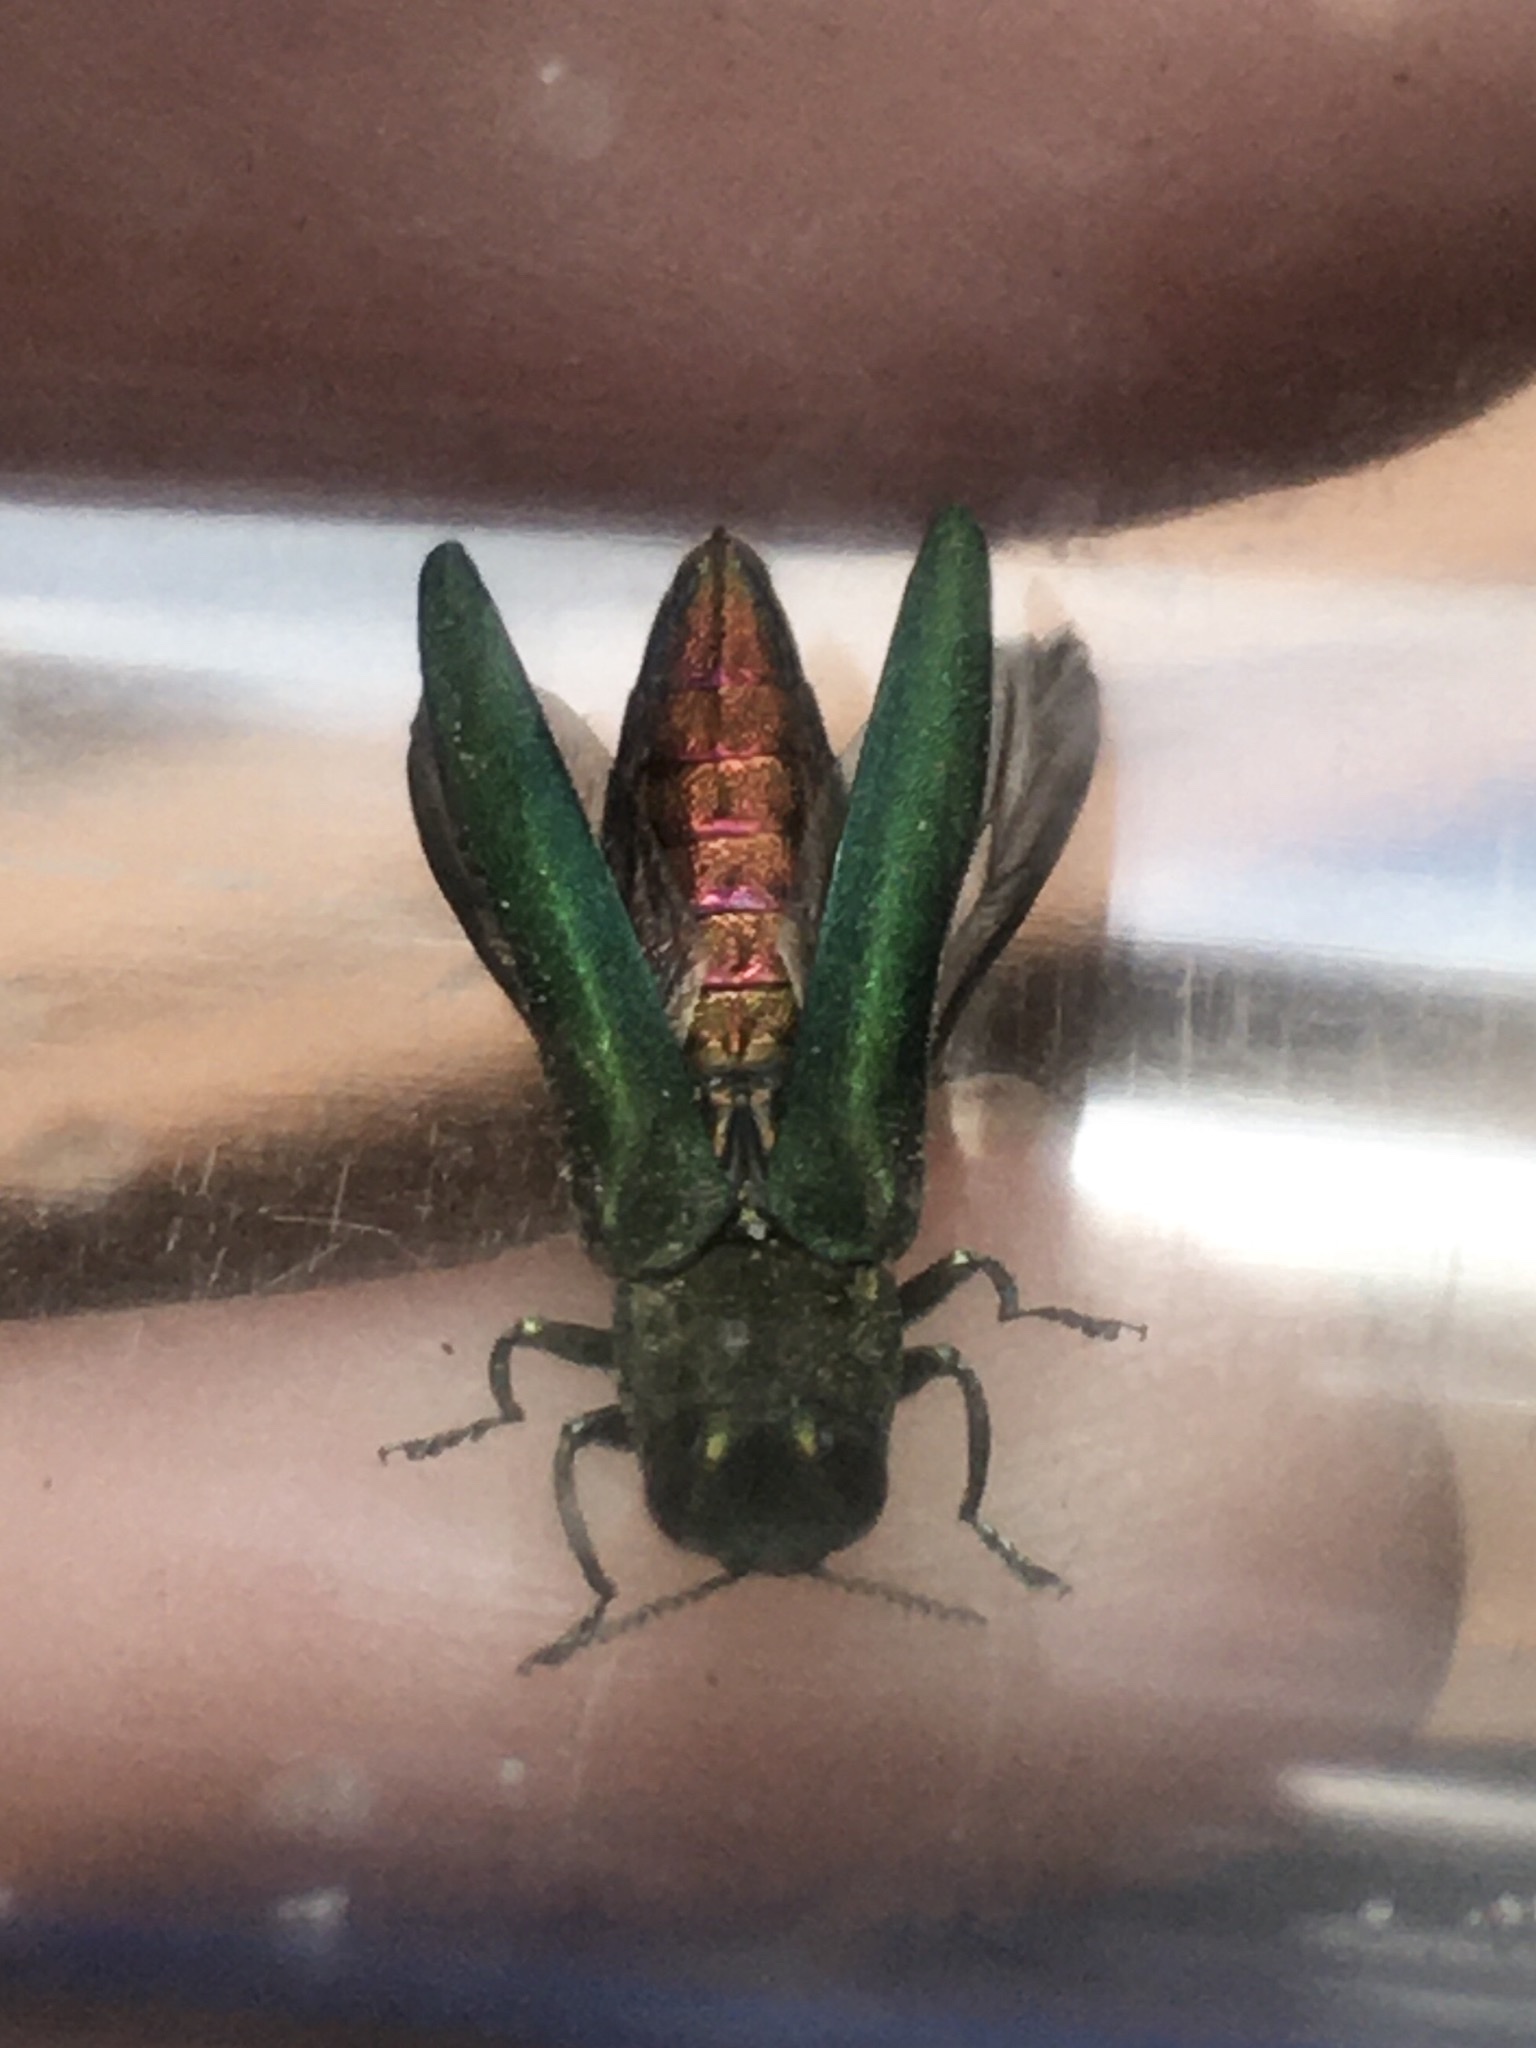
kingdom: Animalia
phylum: Arthropoda
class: Insecta
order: Coleoptera
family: Buprestidae
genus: Agrilus
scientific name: Agrilus planipennis
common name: Emerald ash borer
